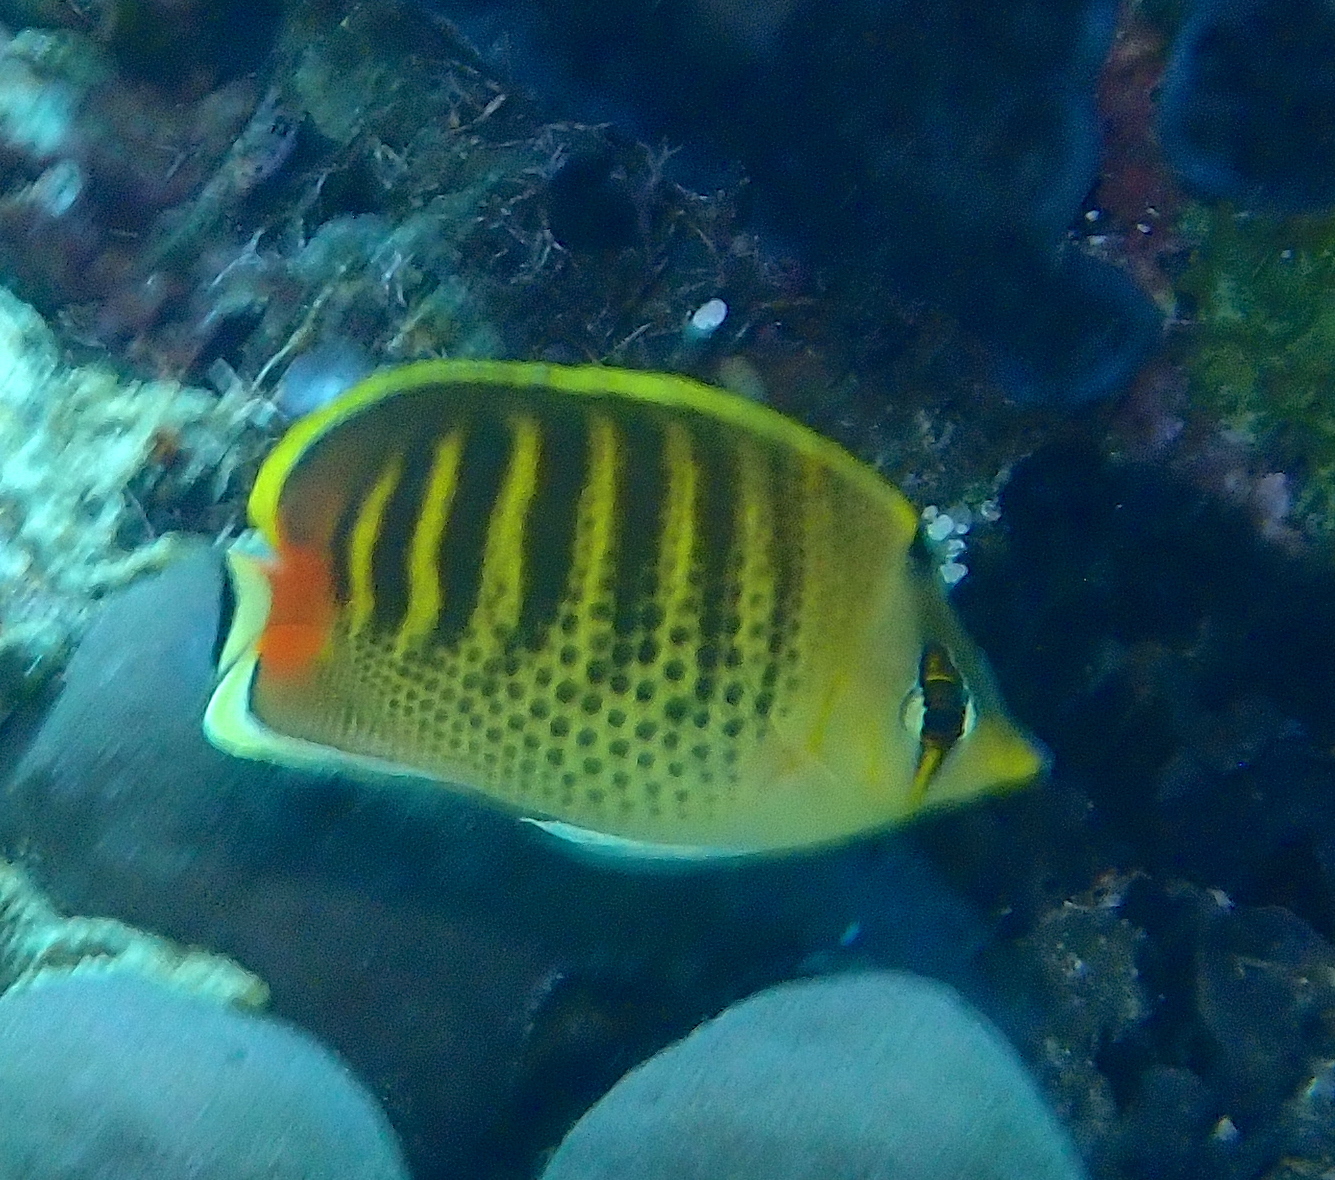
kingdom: Animalia
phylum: Chordata
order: Perciformes
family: Chaetodontidae
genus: Chaetodon
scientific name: Chaetodon punctatofasciatus
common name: Spot-banded butterflyfish
